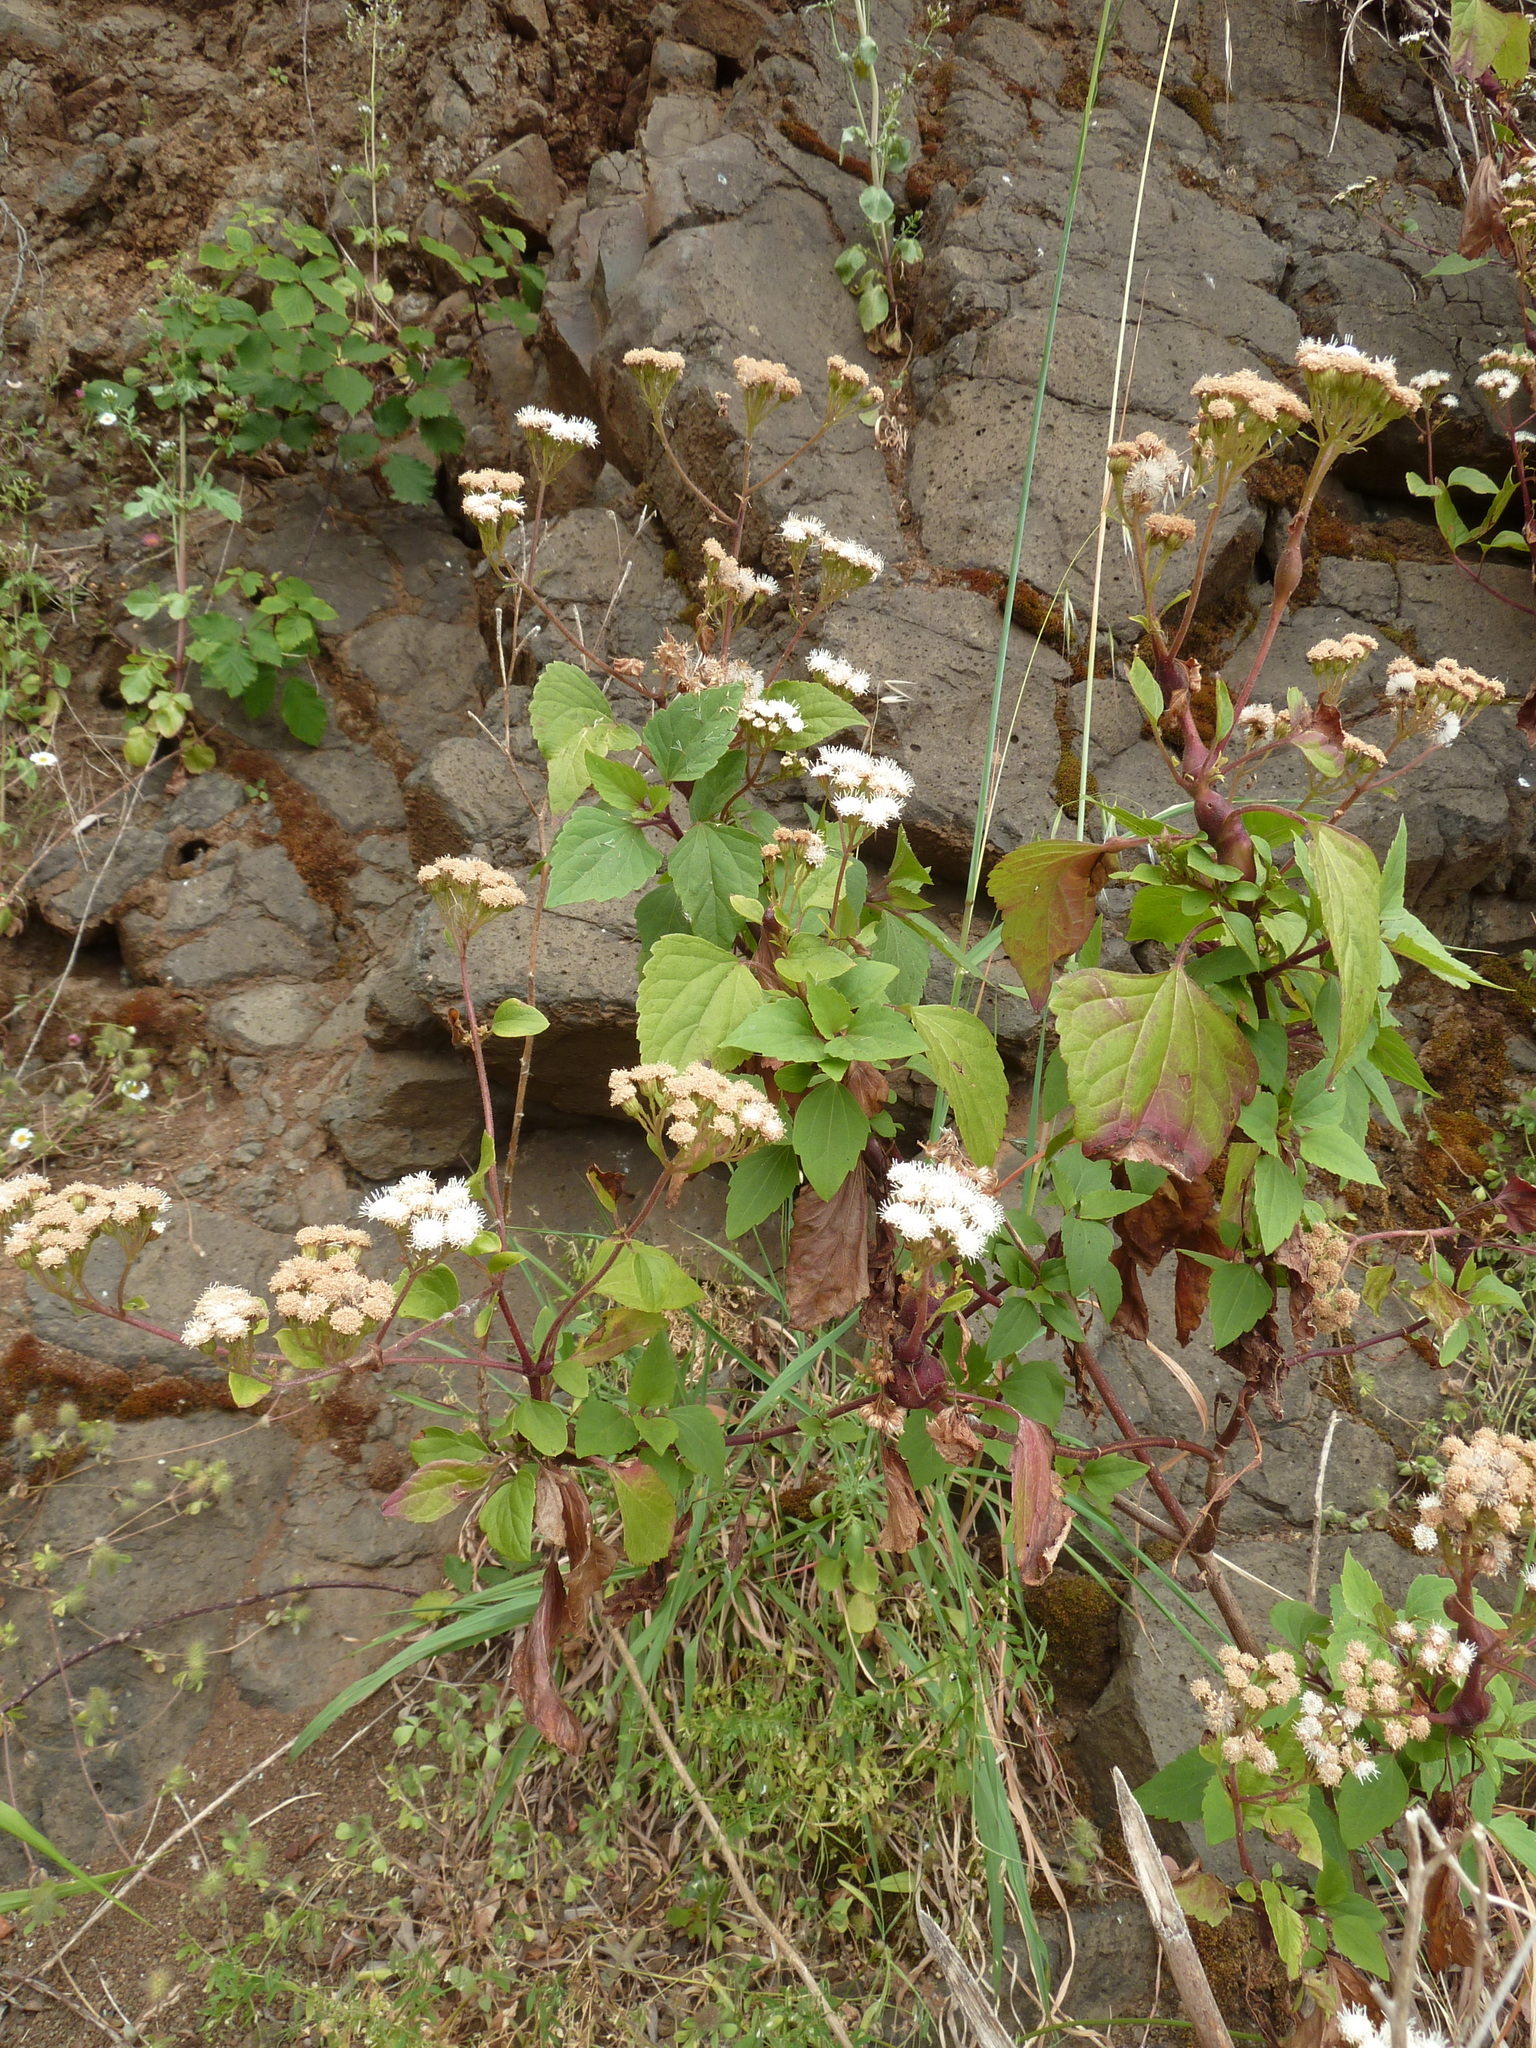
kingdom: Plantae
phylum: Tracheophyta
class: Magnoliopsida
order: Asterales
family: Asteraceae
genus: Ageratina
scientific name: Ageratina adenophora
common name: Sticky snakeroot
